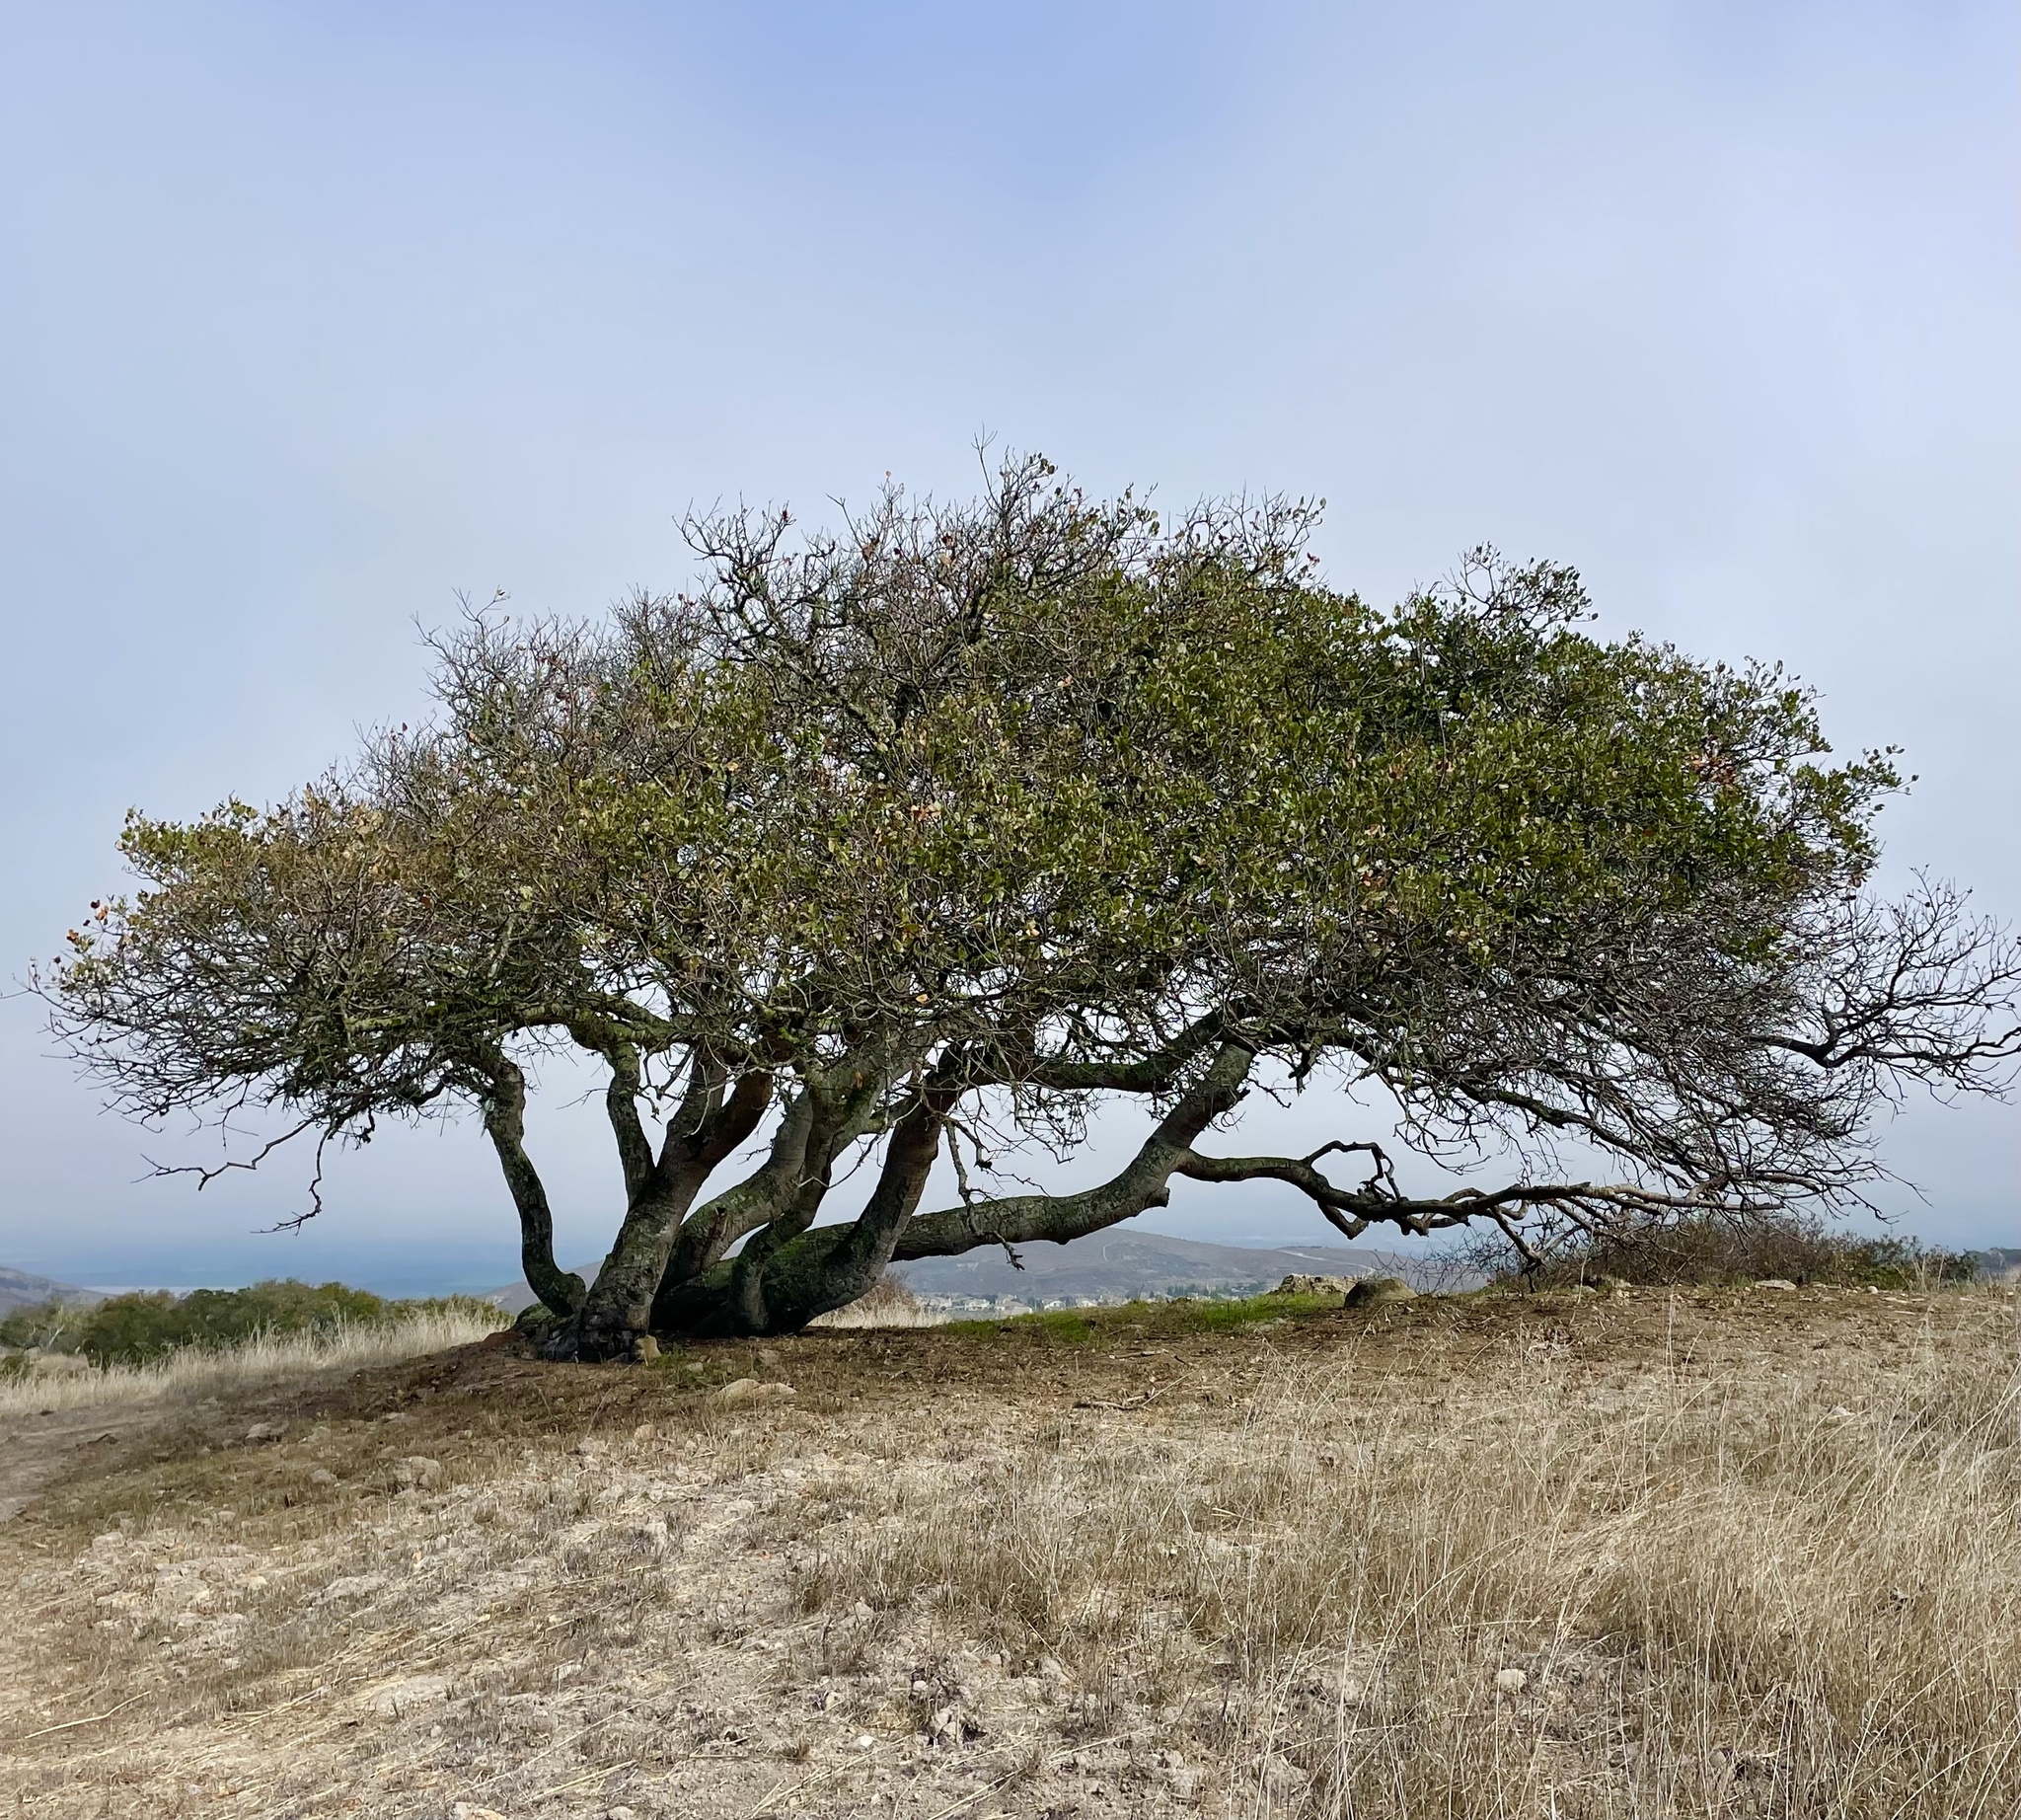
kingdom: Plantae
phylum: Tracheophyta
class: Magnoliopsida
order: Fagales
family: Fagaceae
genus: Quercus
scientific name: Quercus agrifolia
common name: California live oak
